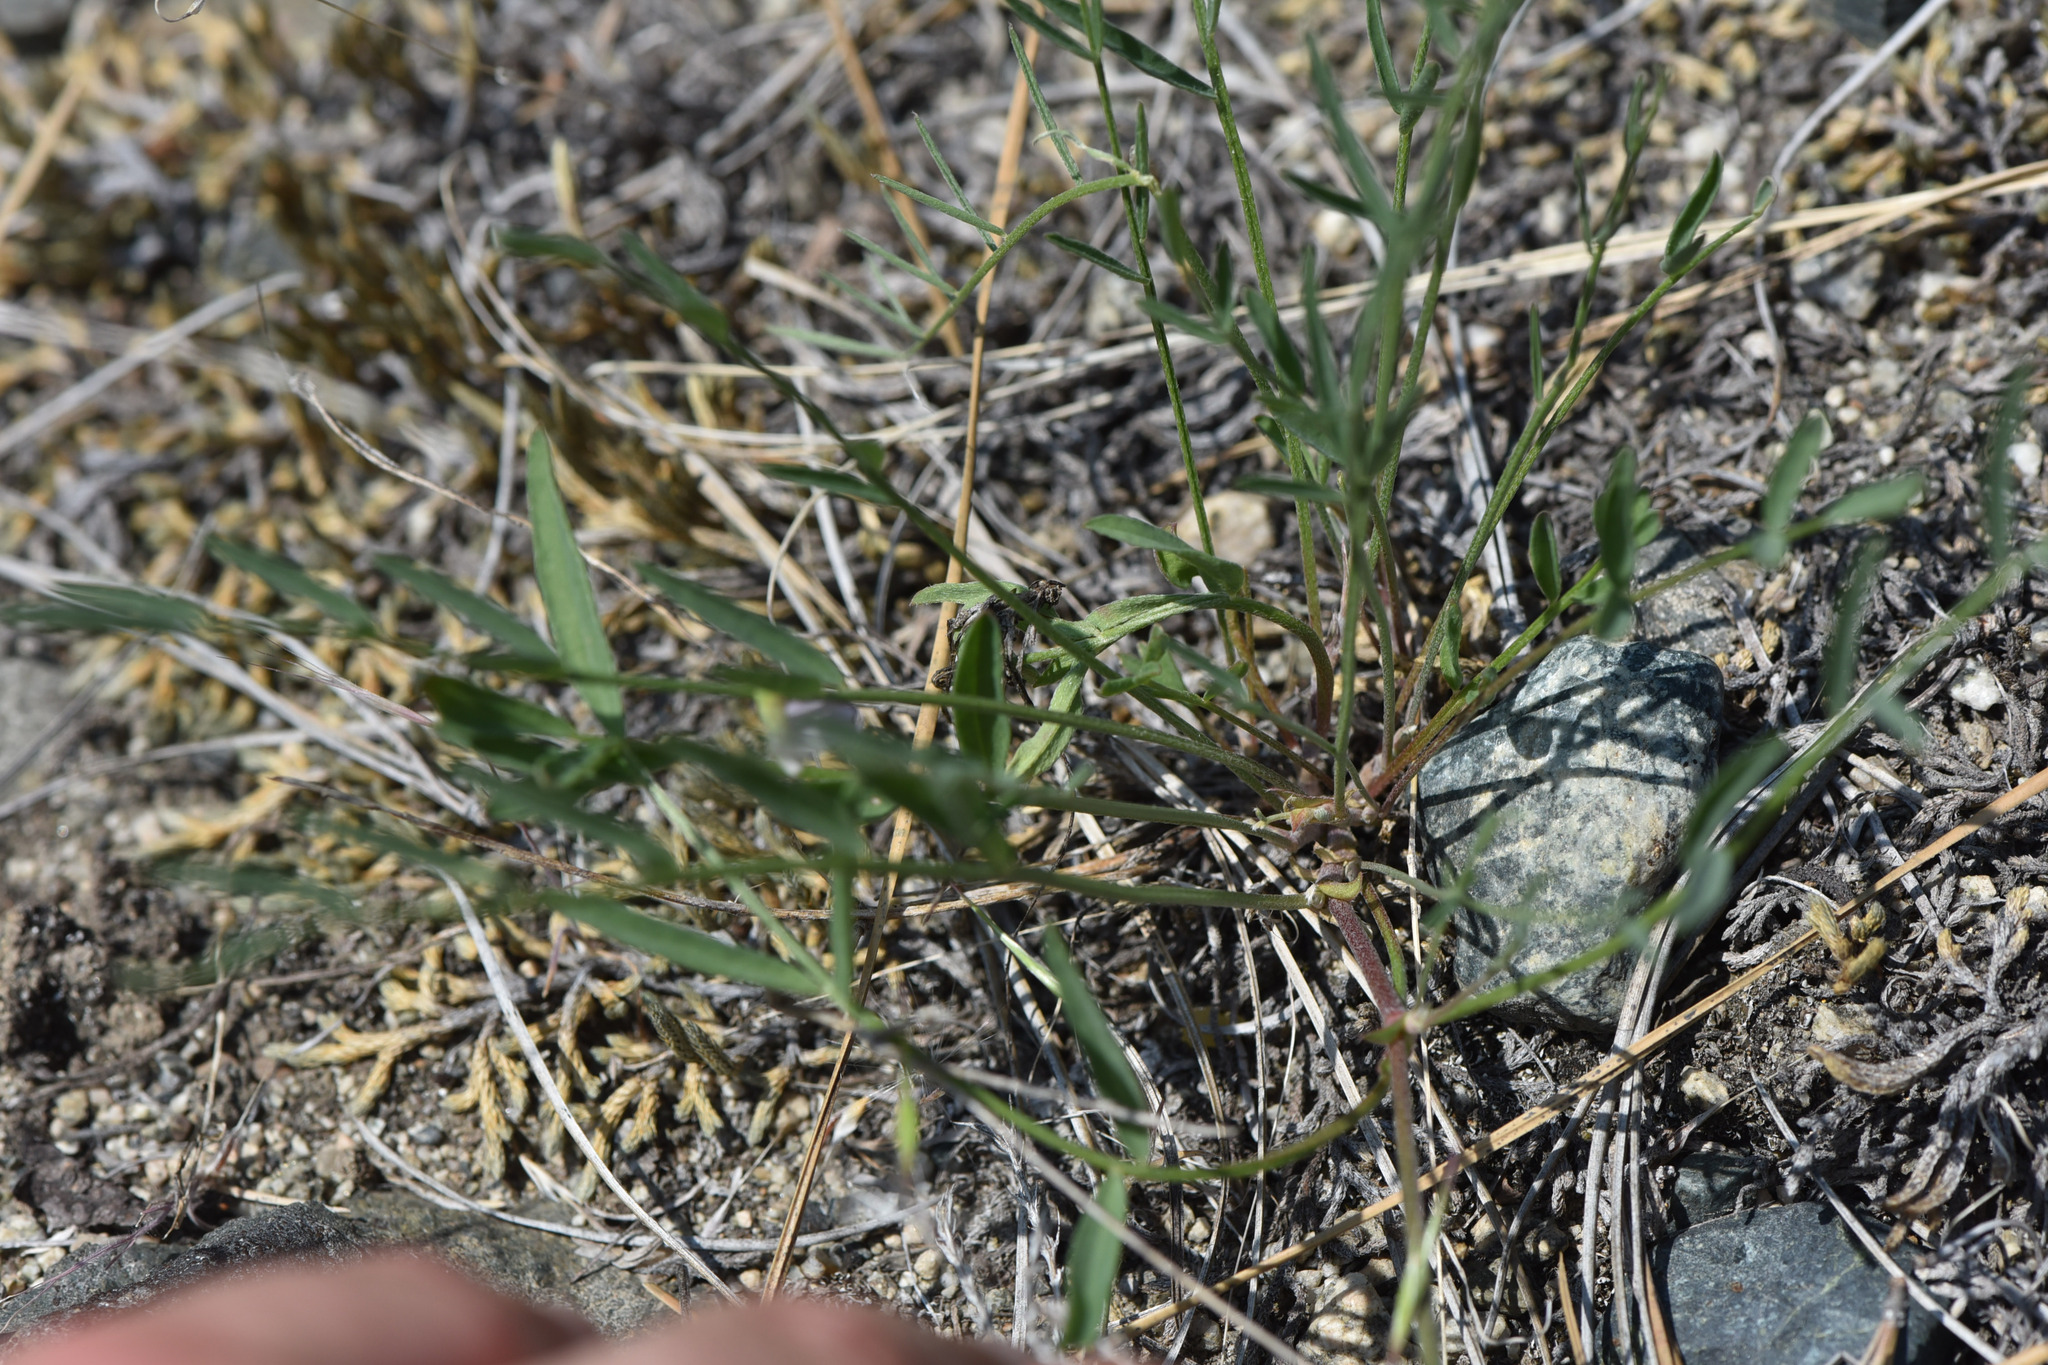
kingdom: Plantae
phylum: Tracheophyta
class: Magnoliopsida
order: Fabales
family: Fabaceae
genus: Astragalus
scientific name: Astragalus miser
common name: Timber milkvetch
